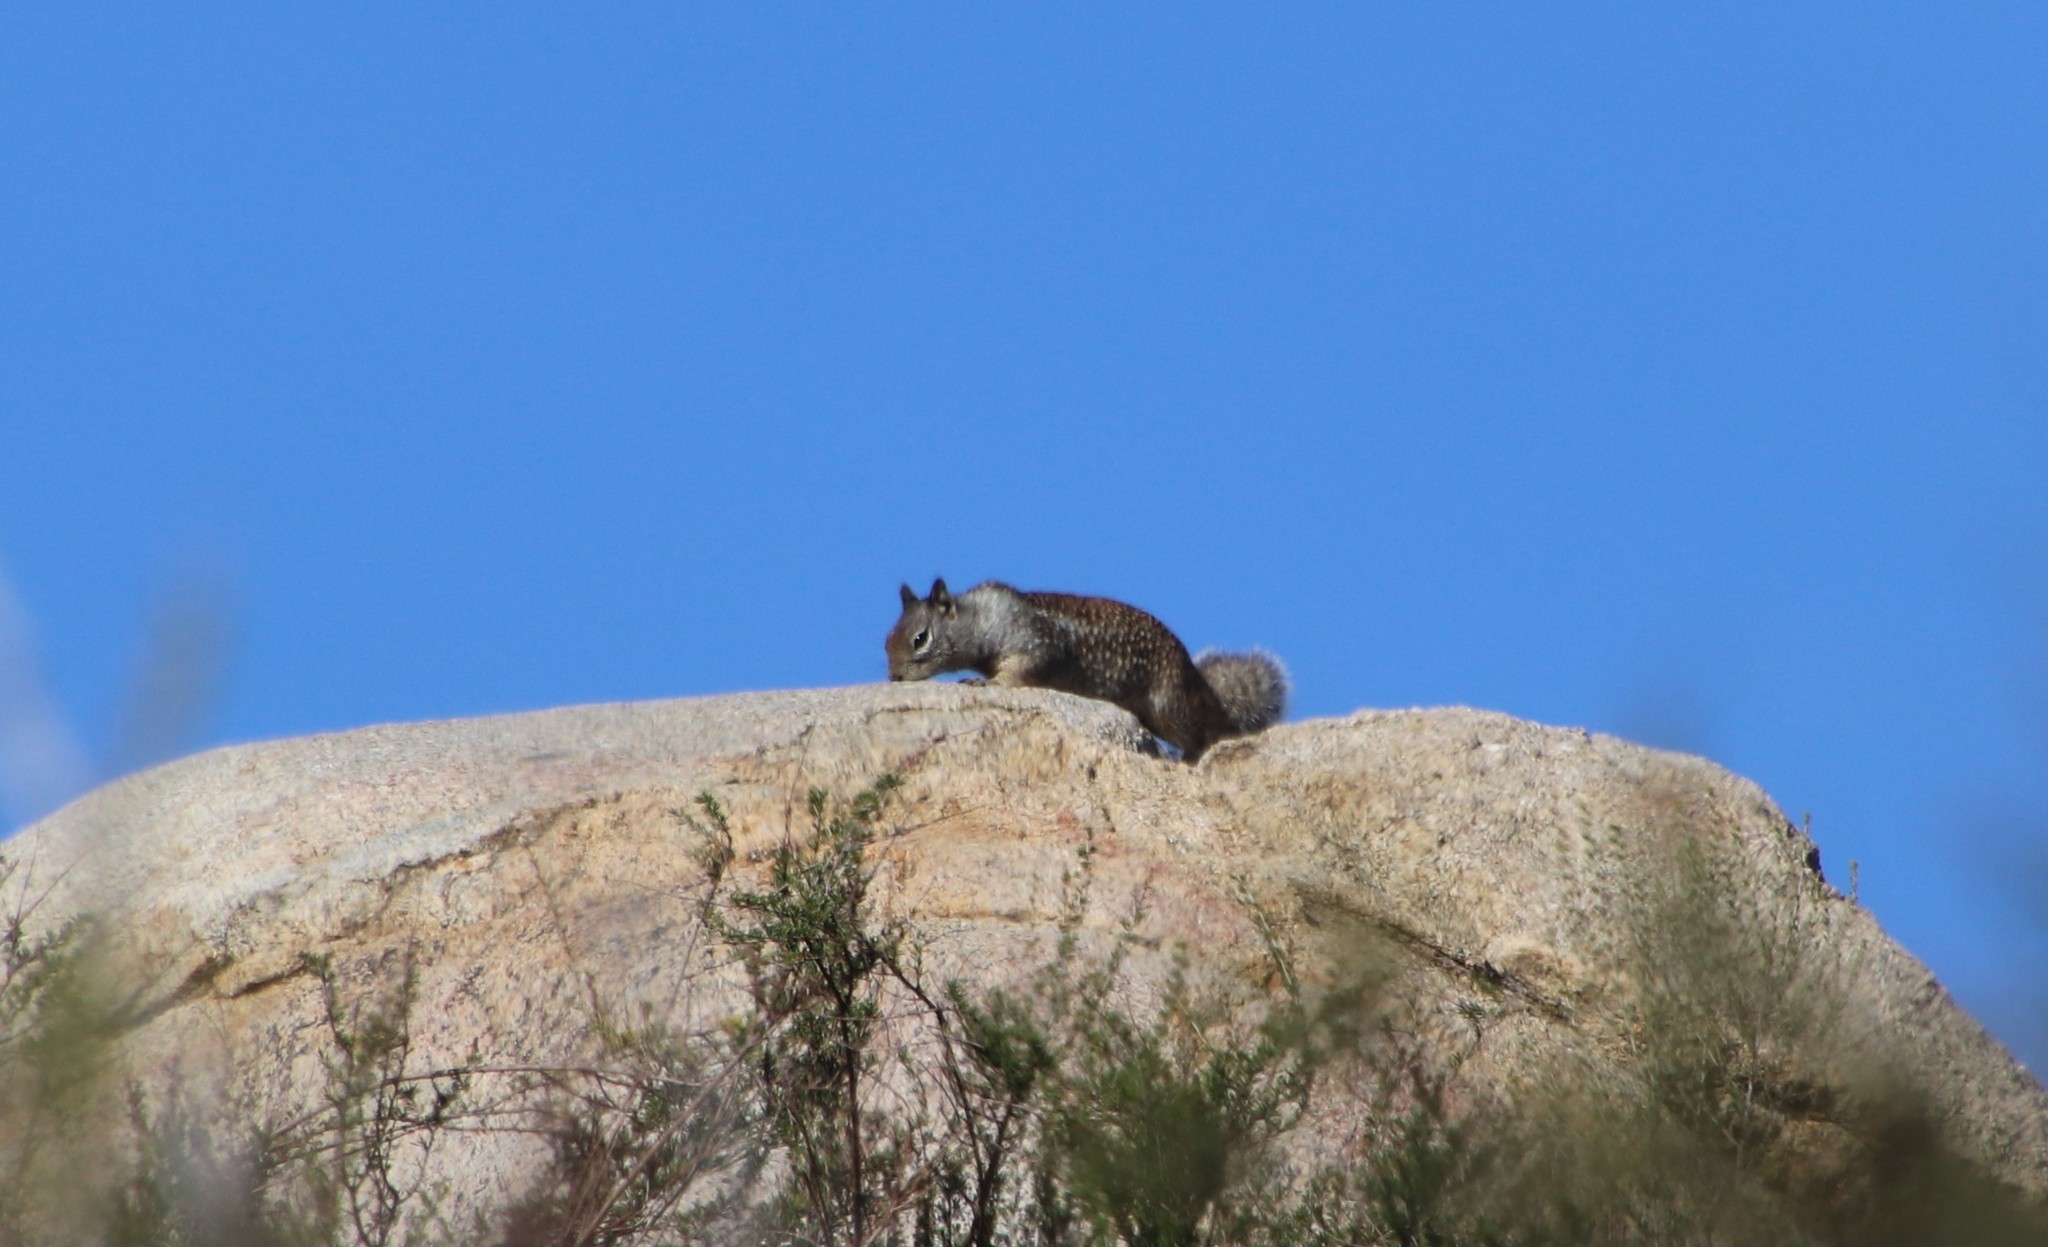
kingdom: Animalia
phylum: Chordata
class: Mammalia
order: Rodentia
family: Sciuridae
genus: Otospermophilus
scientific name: Otospermophilus beecheyi
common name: California ground squirrel
